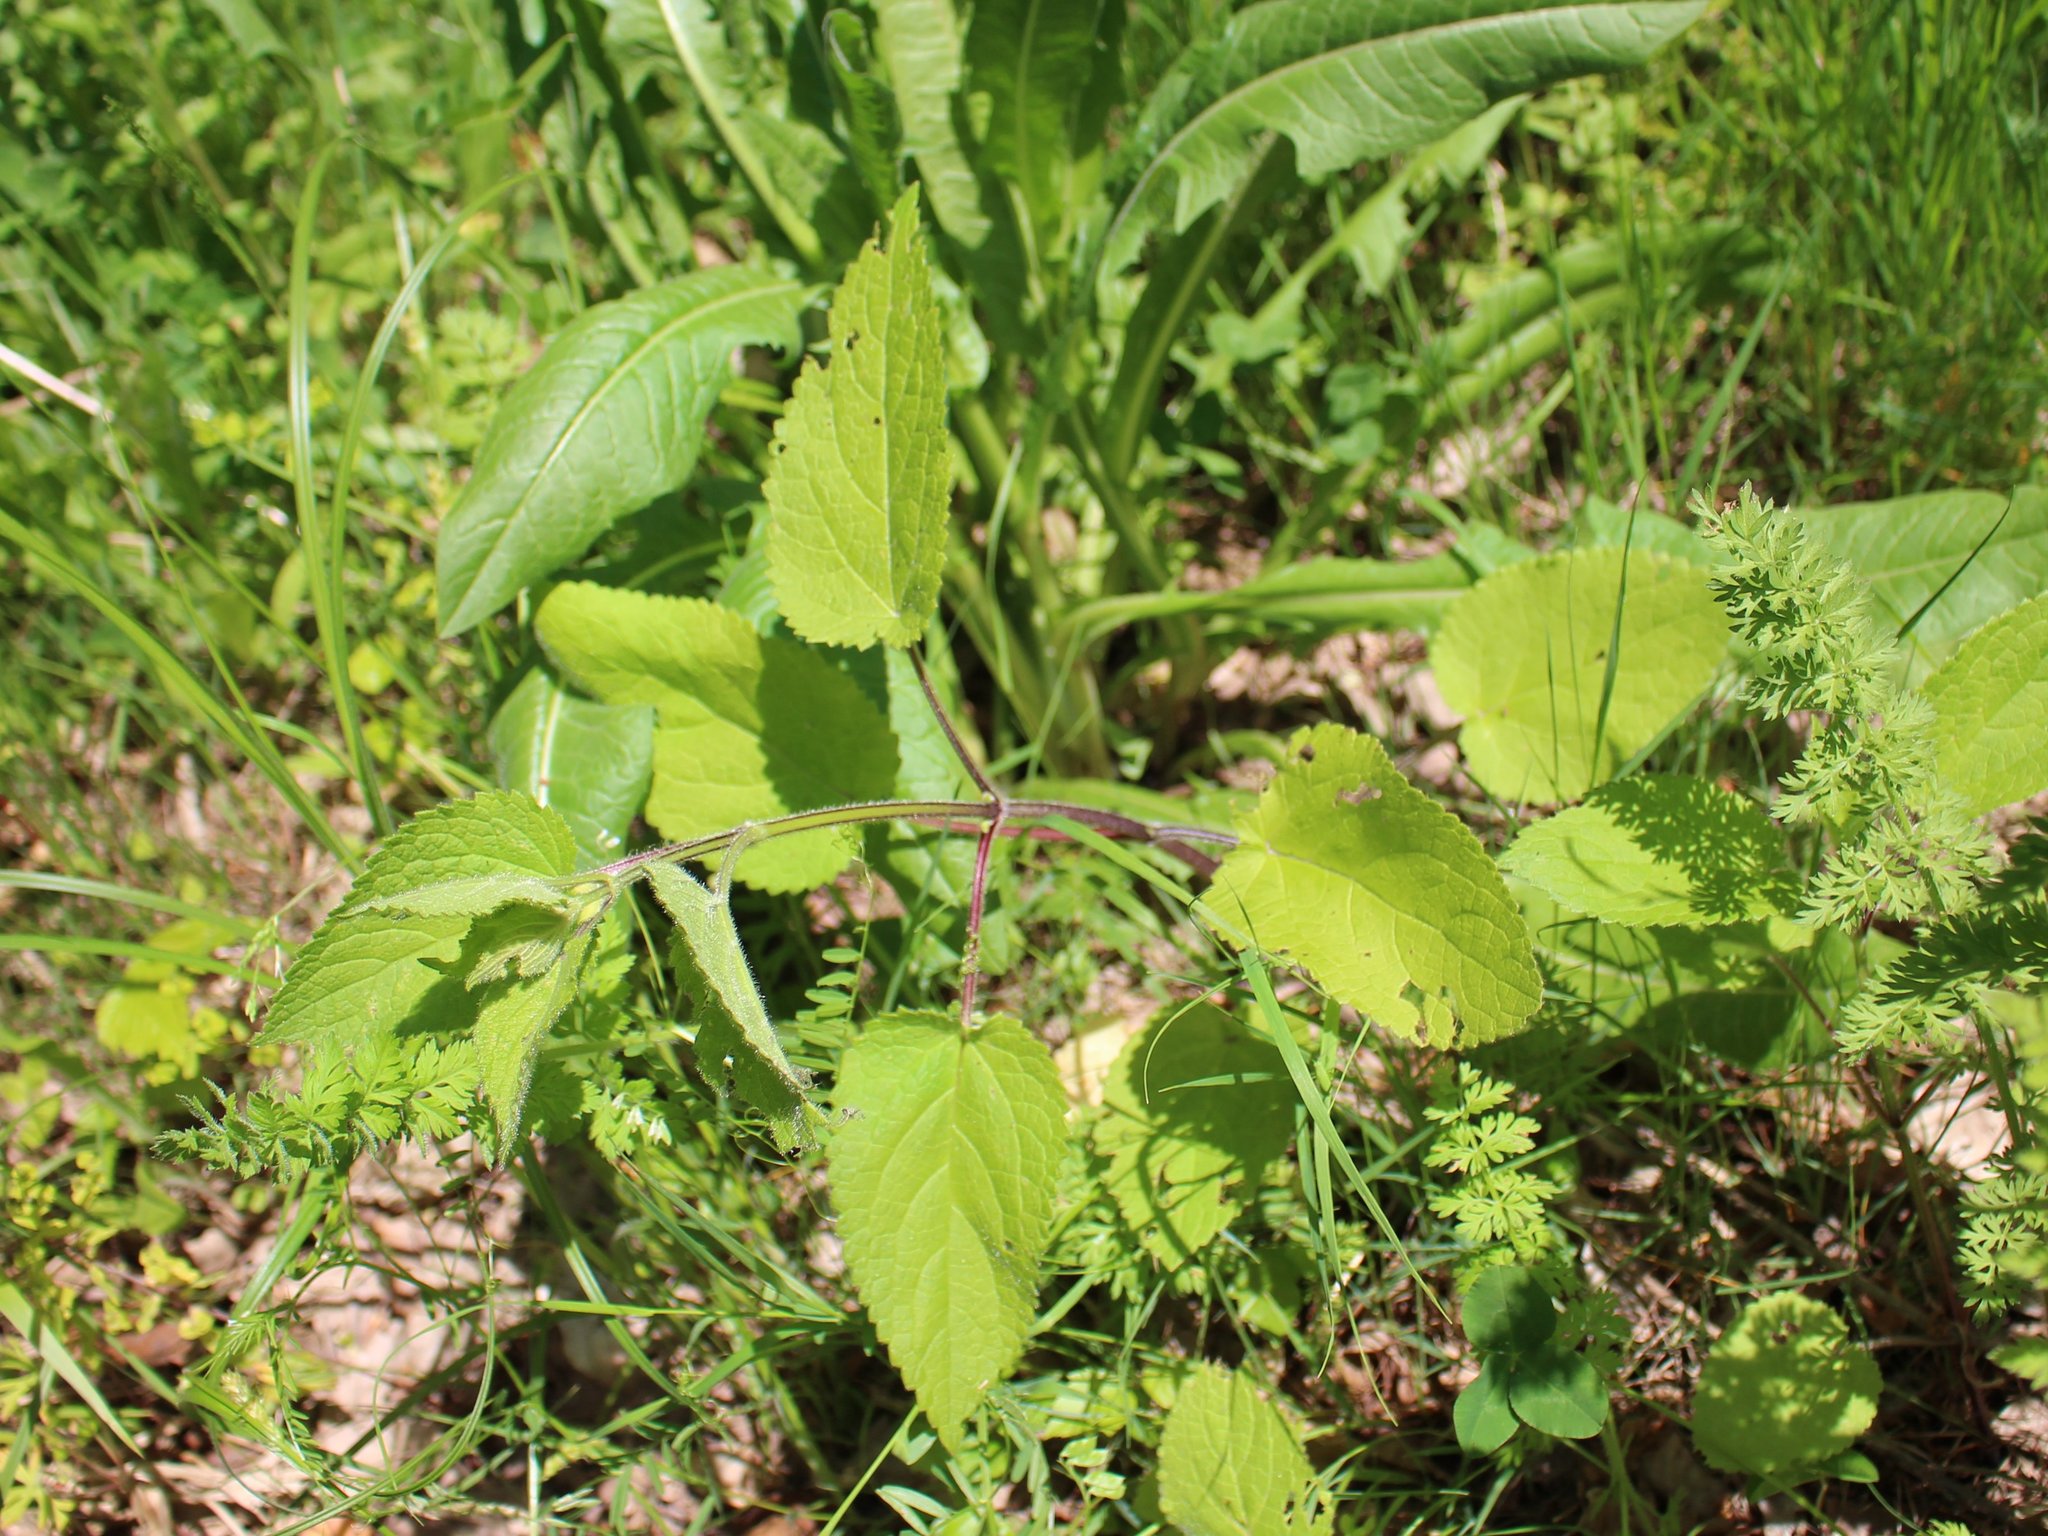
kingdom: Plantae
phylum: Tracheophyta
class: Magnoliopsida
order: Lamiales
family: Lamiaceae
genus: Stachys
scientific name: Stachys sylvatica
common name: Hedge woundwort
